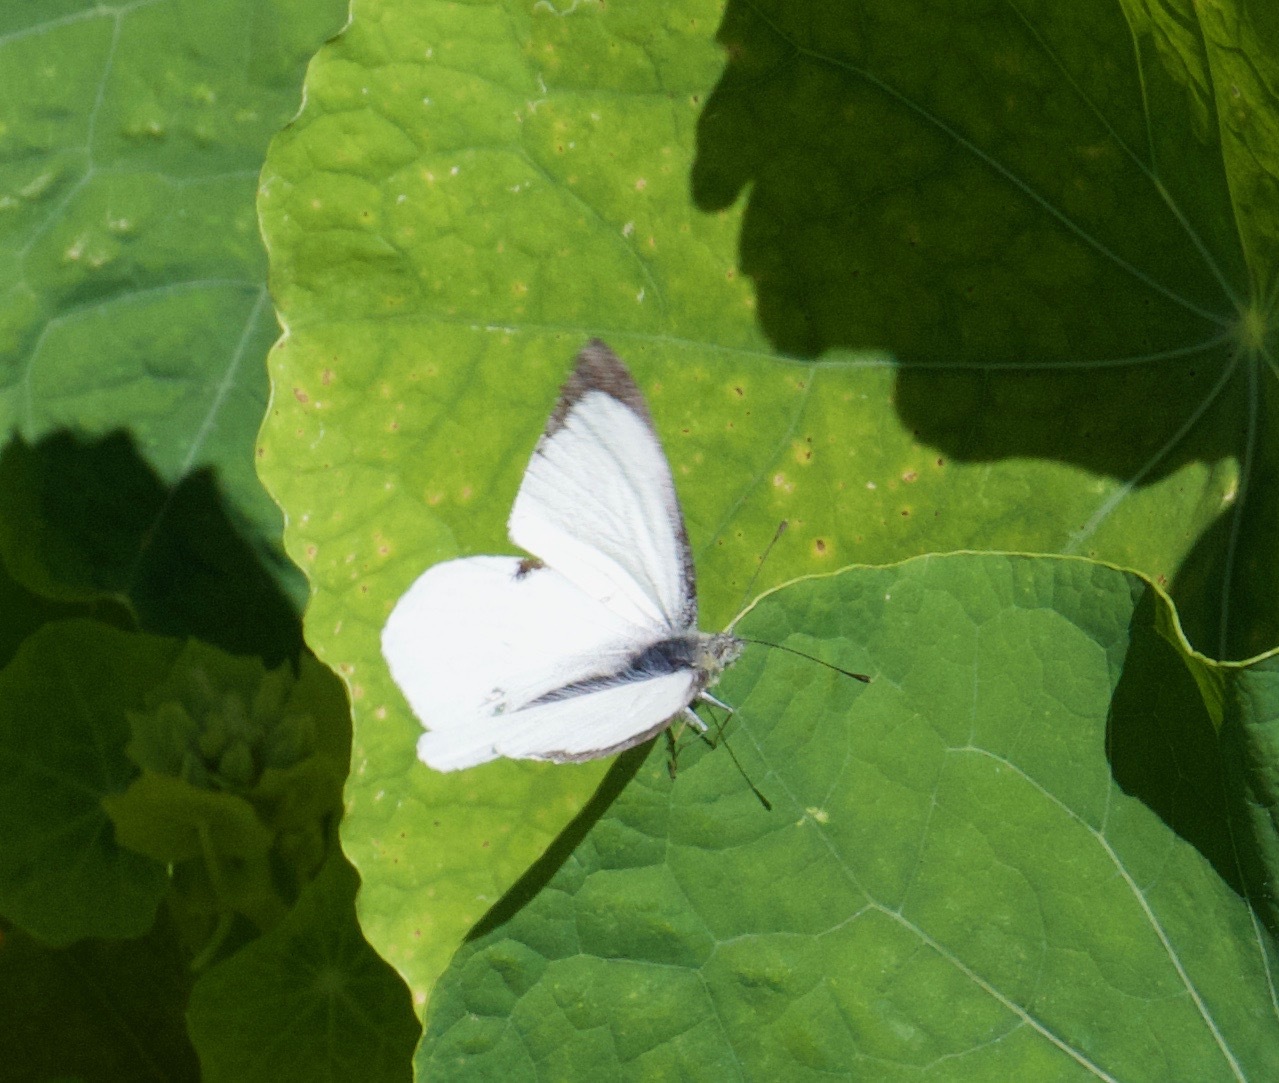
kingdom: Animalia
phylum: Arthropoda
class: Insecta
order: Lepidoptera
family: Pieridae
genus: Pieris
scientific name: Pieris brassicae
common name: Large white
